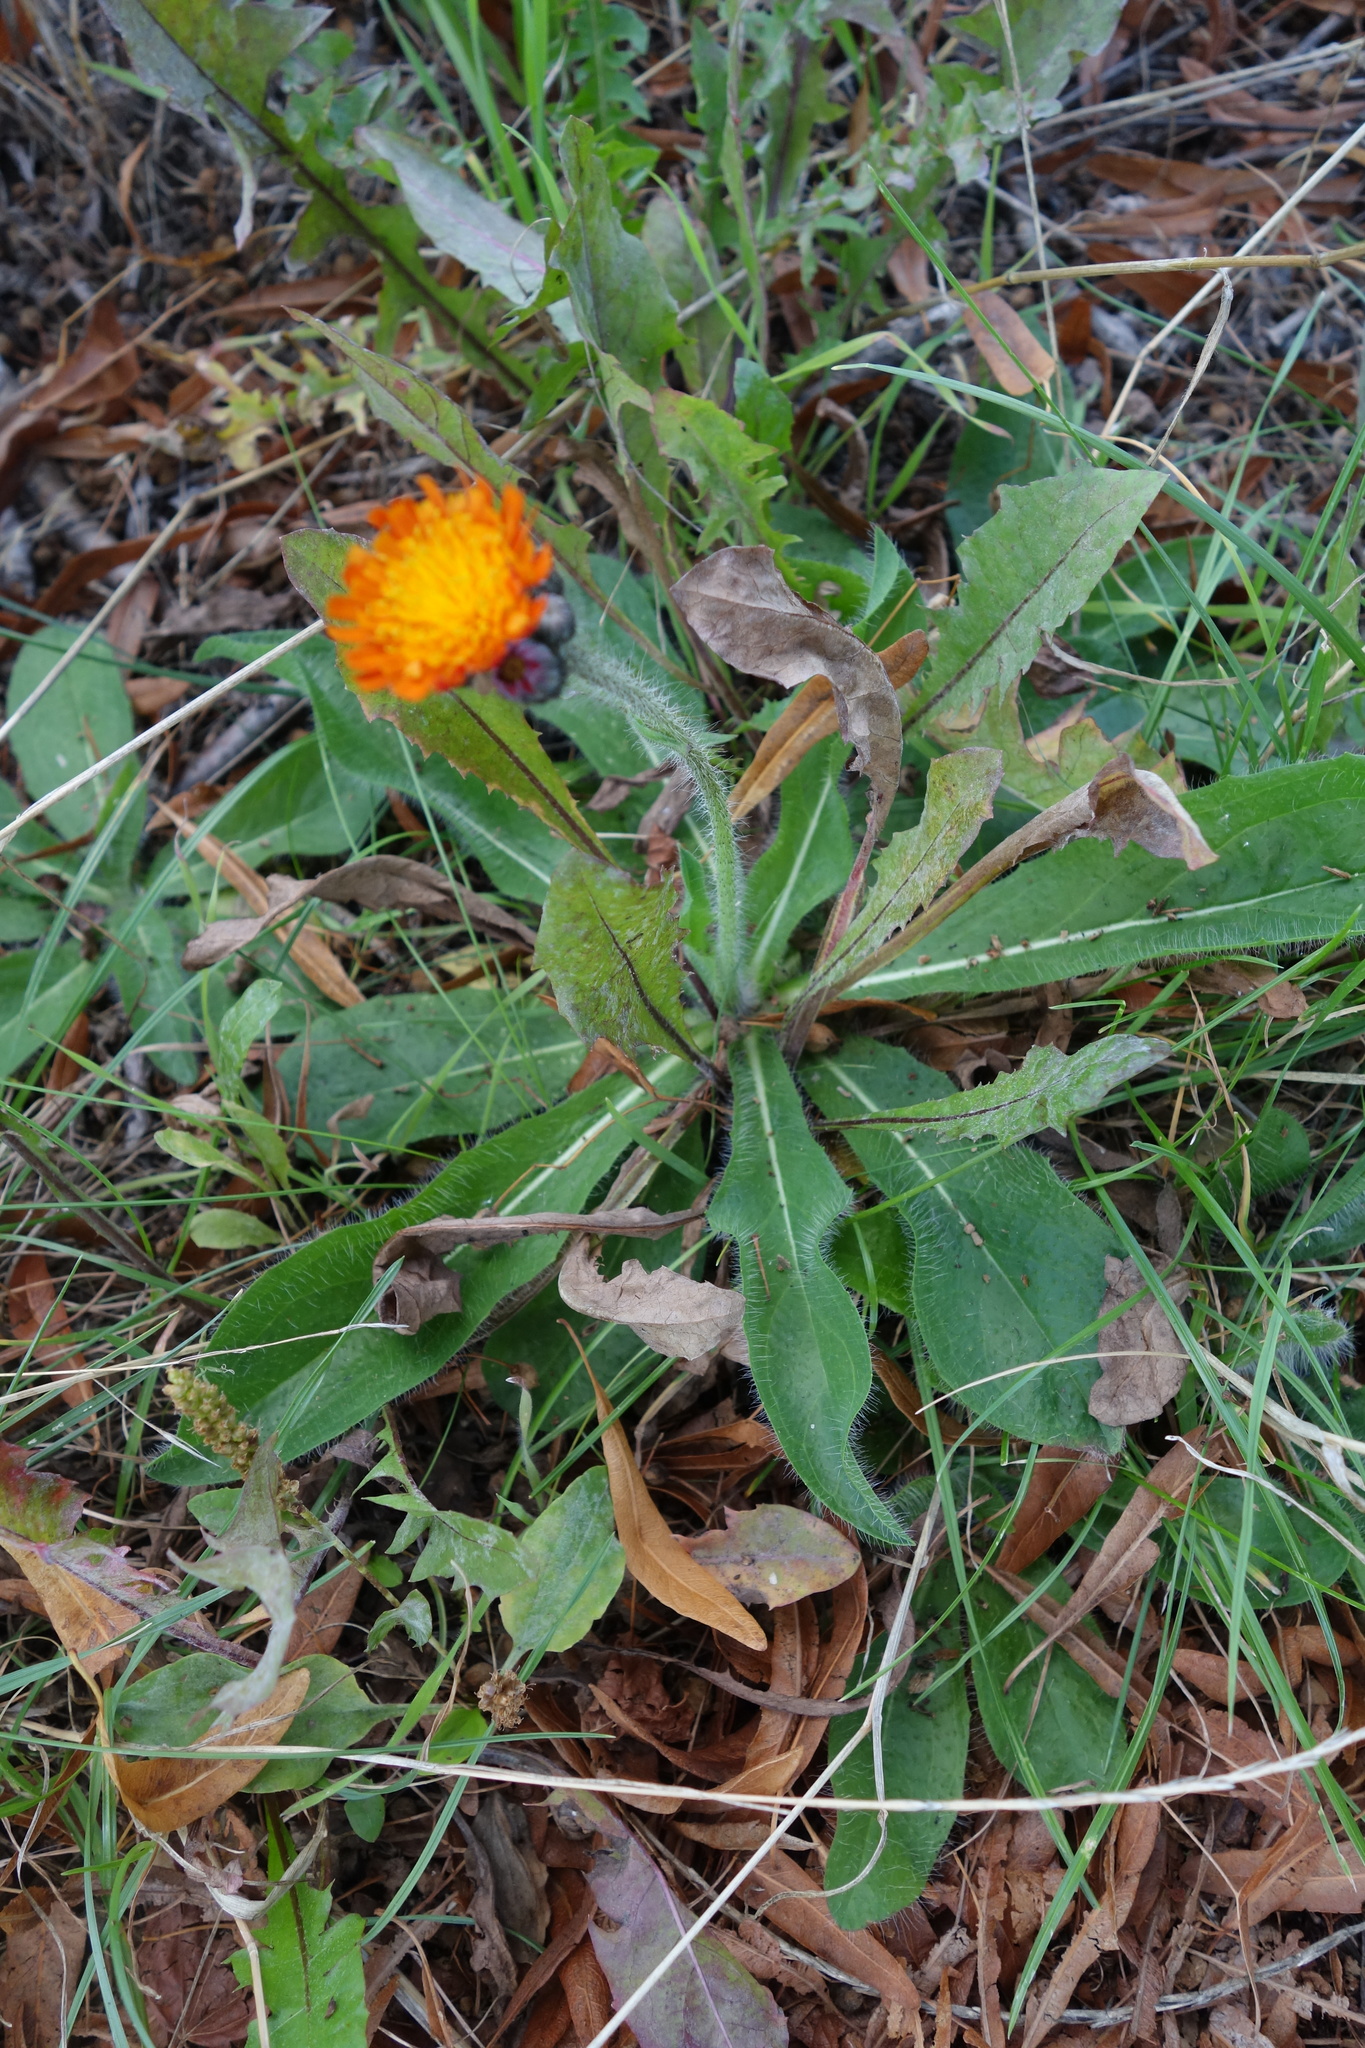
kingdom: Plantae
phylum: Tracheophyta
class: Magnoliopsida
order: Asterales
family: Asteraceae
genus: Pilosella
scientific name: Pilosella aurantiaca
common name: Fox-and-cubs
